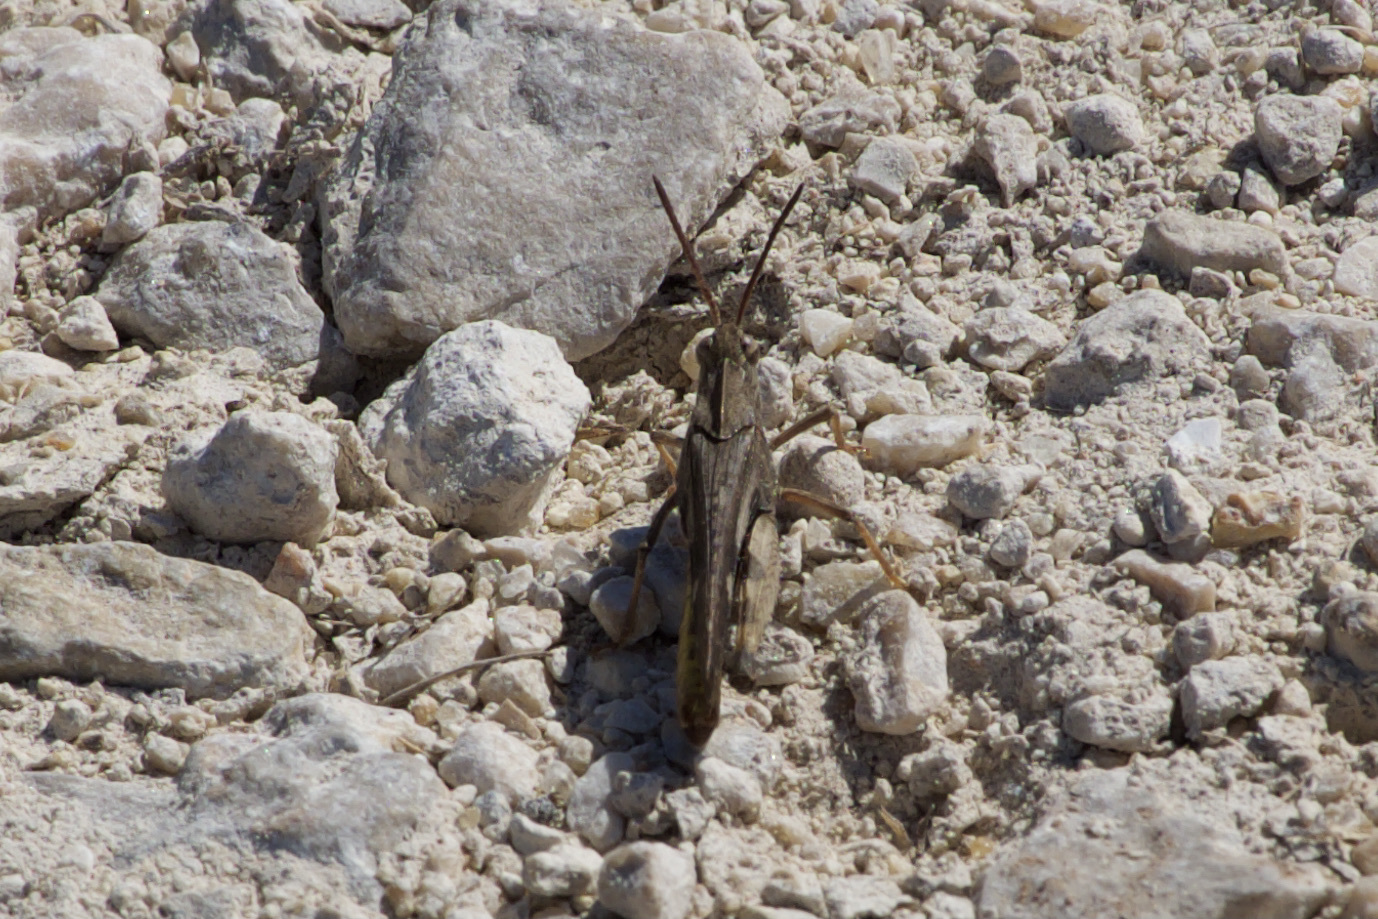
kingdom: Animalia
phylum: Arthropoda
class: Insecta
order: Orthoptera
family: Acrididae
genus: Chortophaga
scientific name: Chortophaga viridifasciata
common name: Green-striped grasshopper
